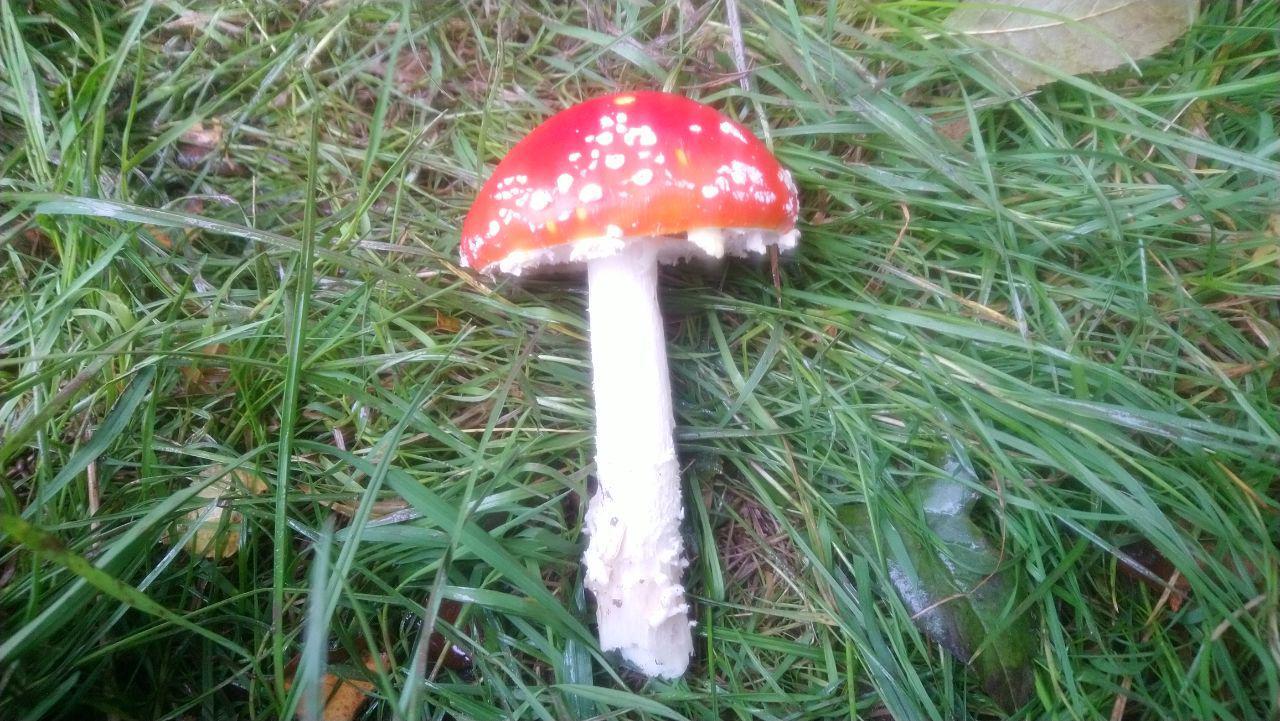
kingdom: Fungi
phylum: Basidiomycota
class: Agaricomycetes
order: Agaricales
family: Amanitaceae
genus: Amanita
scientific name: Amanita muscaria
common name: Fly agaric
